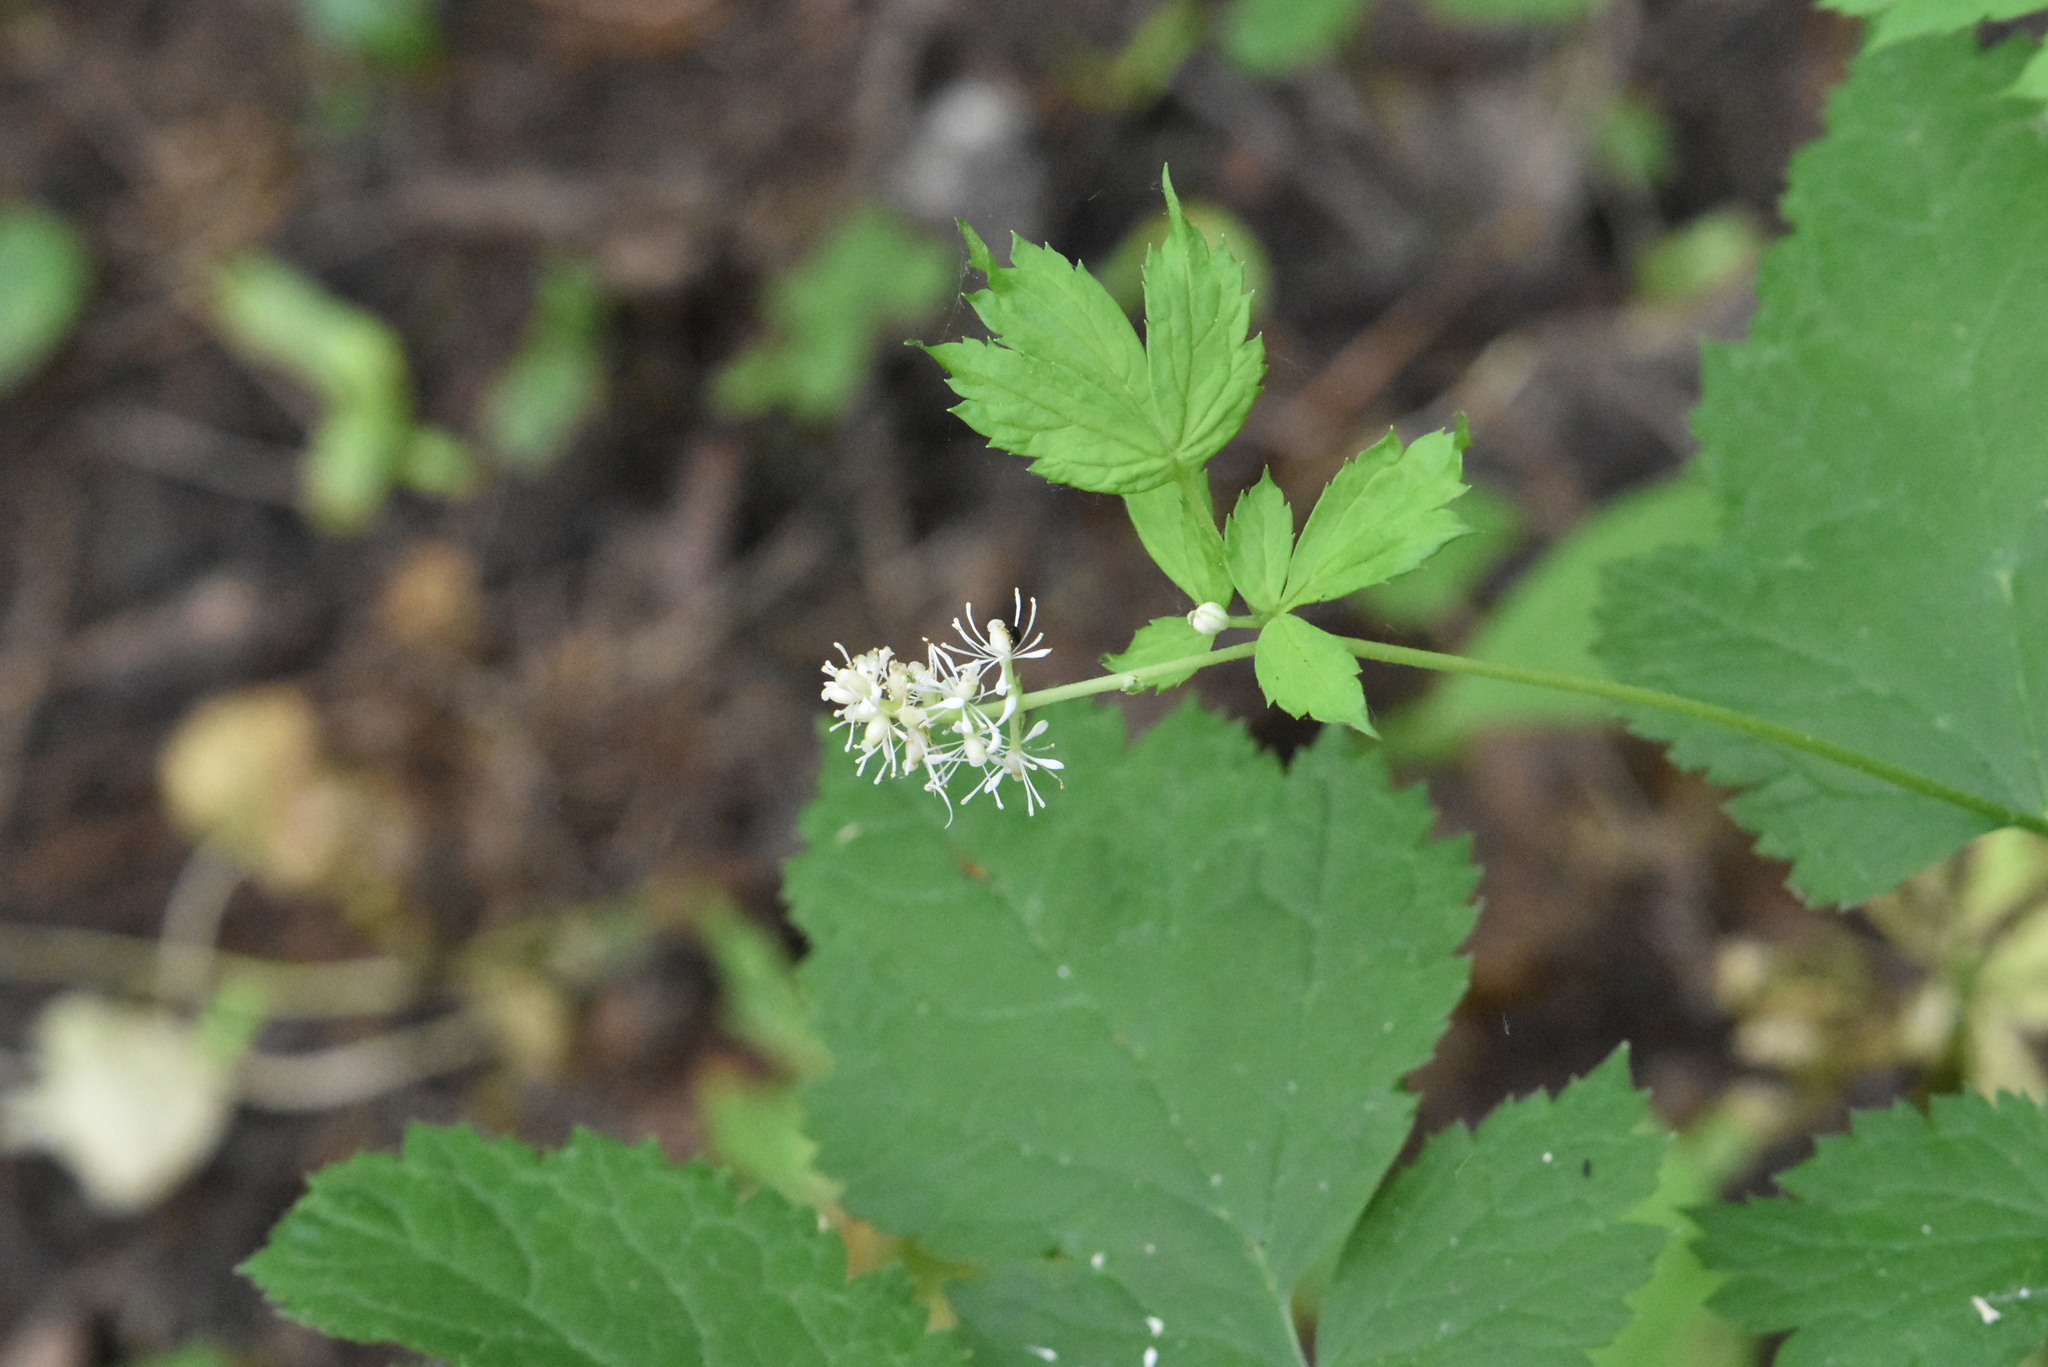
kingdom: Plantae
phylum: Tracheophyta
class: Magnoliopsida
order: Ranunculales
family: Ranunculaceae
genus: Actaea
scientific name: Actaea spicata
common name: Baneberry
